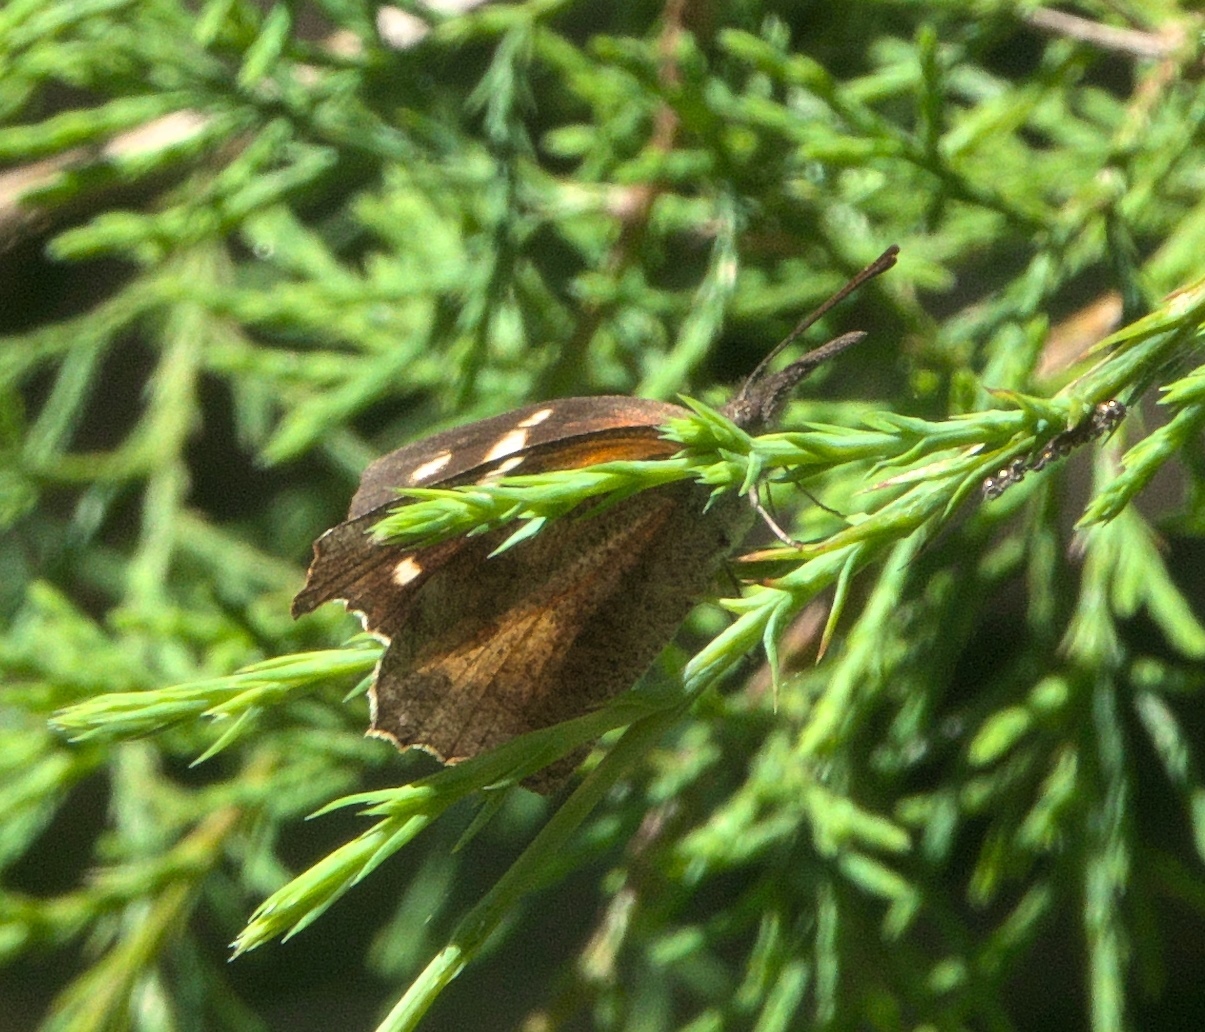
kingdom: Animalia
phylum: Arthropoda
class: Insecta
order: Lepidoptera
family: Nymphalidae
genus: Libytheana
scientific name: Libytheana carinenta
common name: American snout
